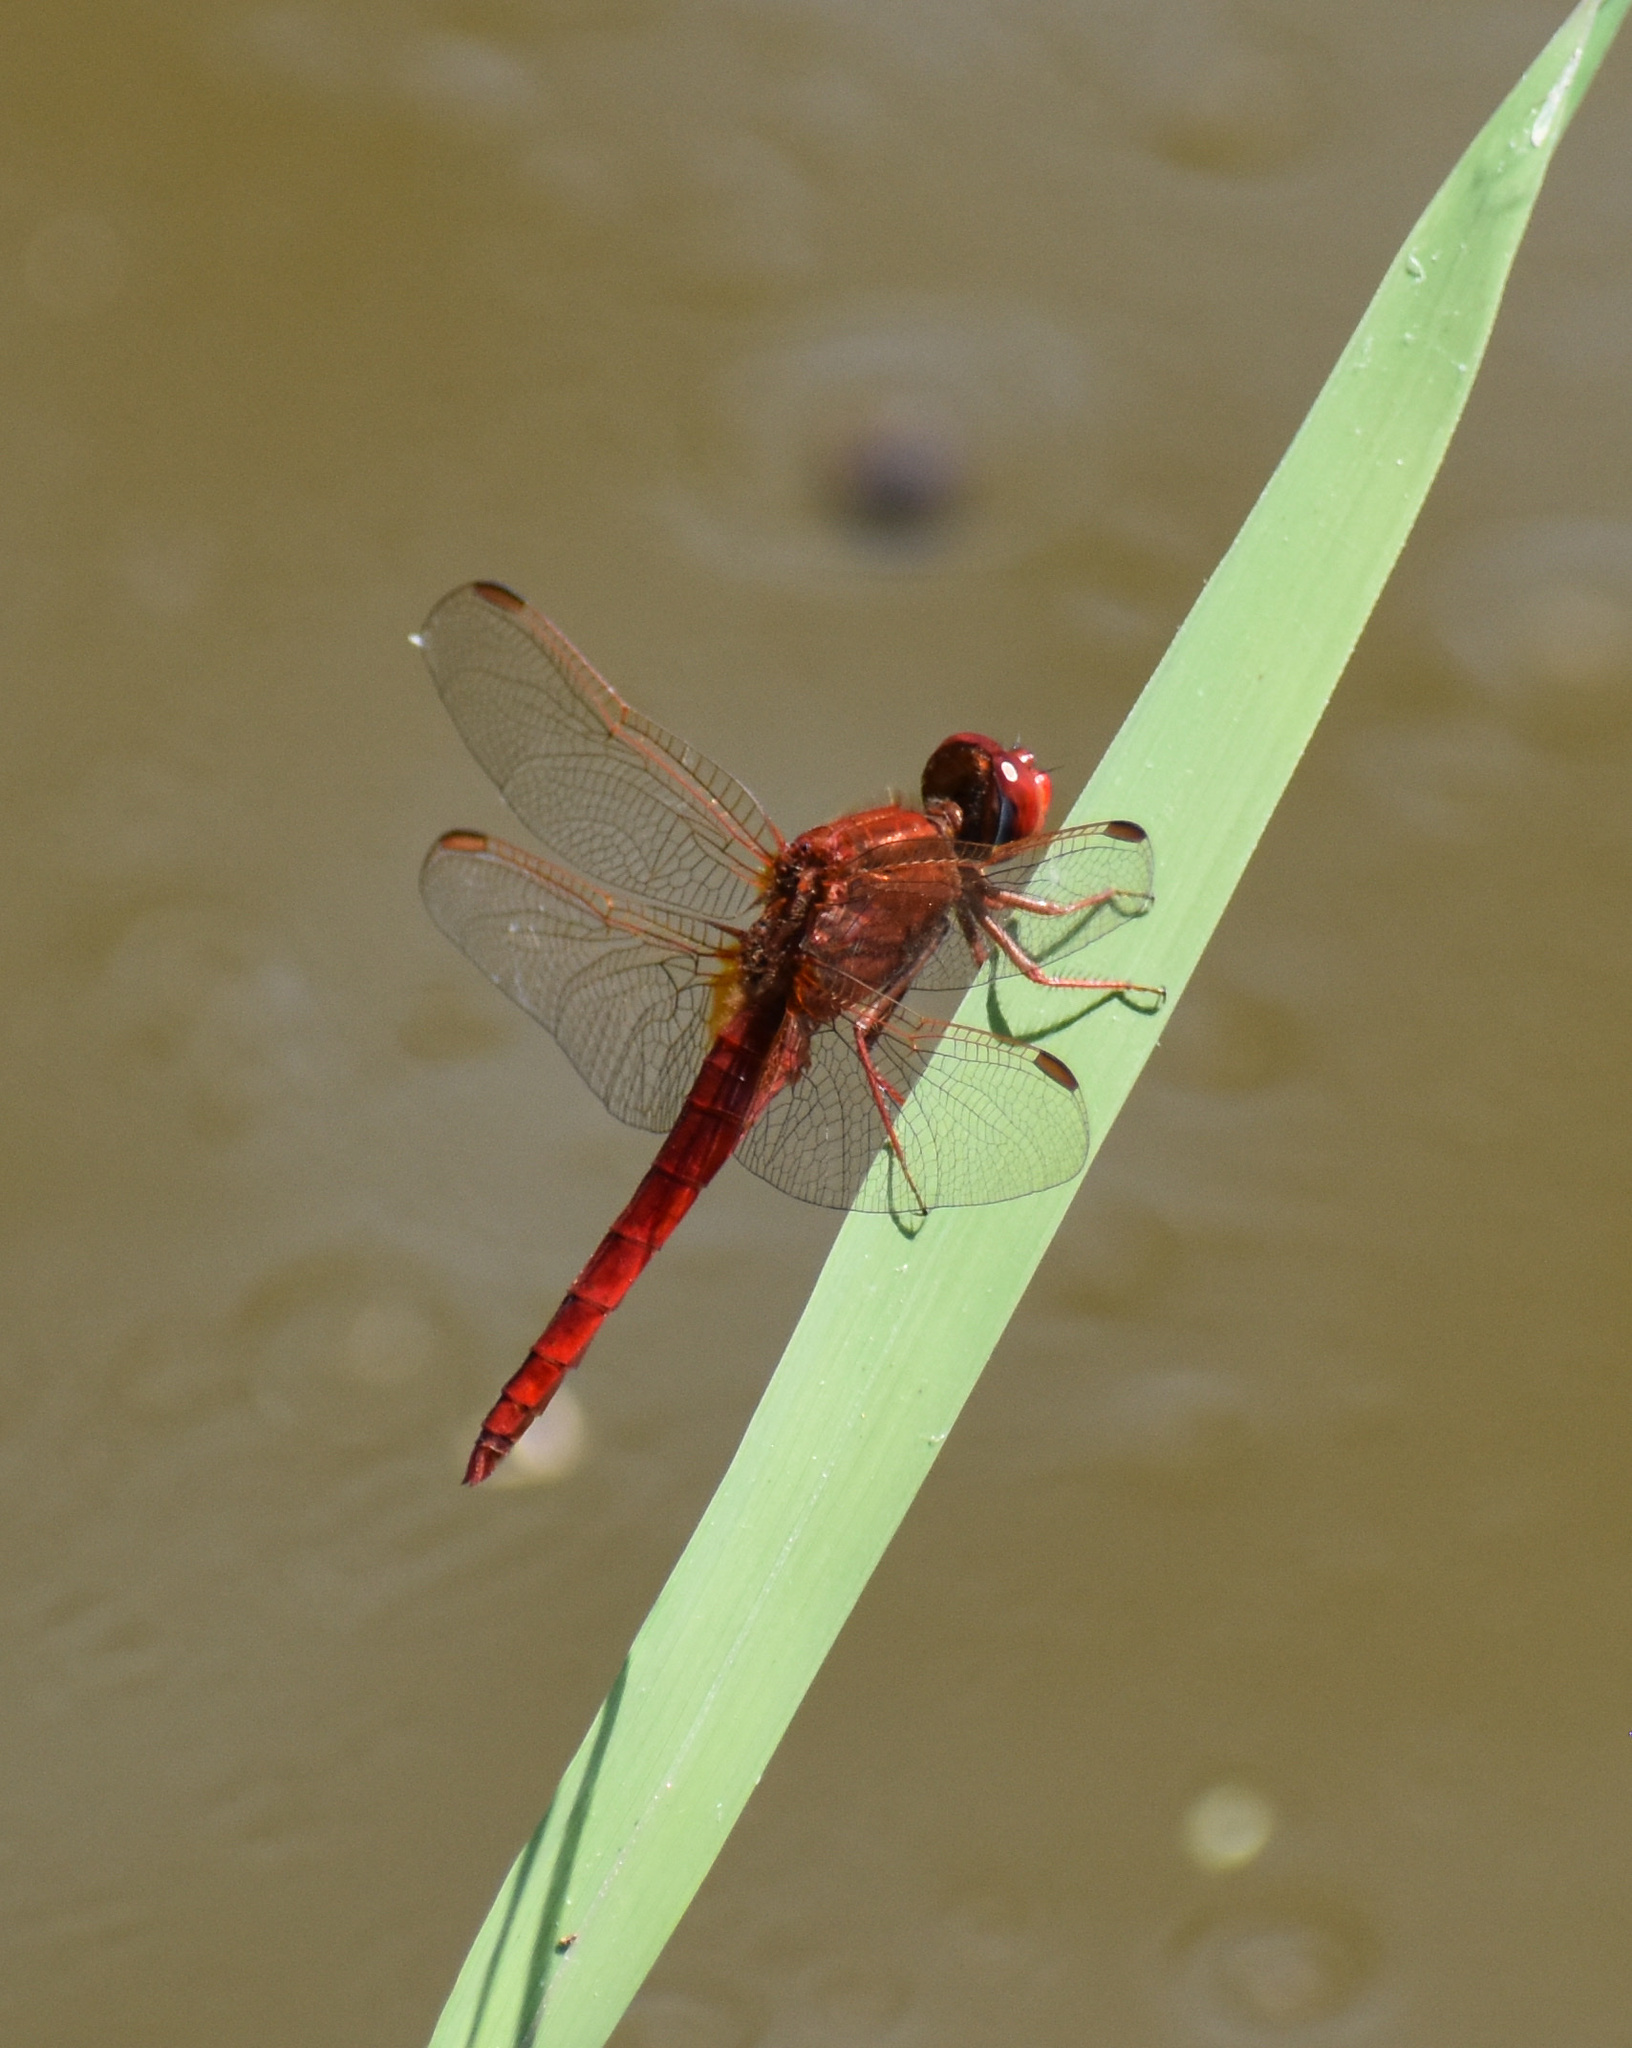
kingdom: Animalia
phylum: Arthropoda
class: Insecta
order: Odonata
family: Libellulidae
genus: Crocothemis
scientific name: Crocothemis erythraea
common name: Scarlet dragonfly
